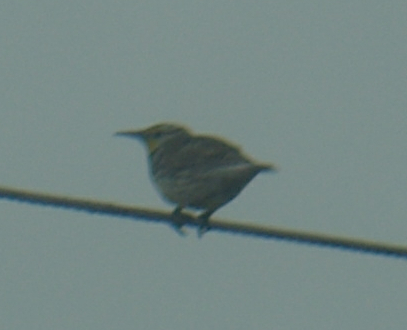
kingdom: Animalia
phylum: Chordata
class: Aves
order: Passeriformes
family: Icteridae
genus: Sturnella
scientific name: Sturnella neglecta
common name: Western meadowlark
